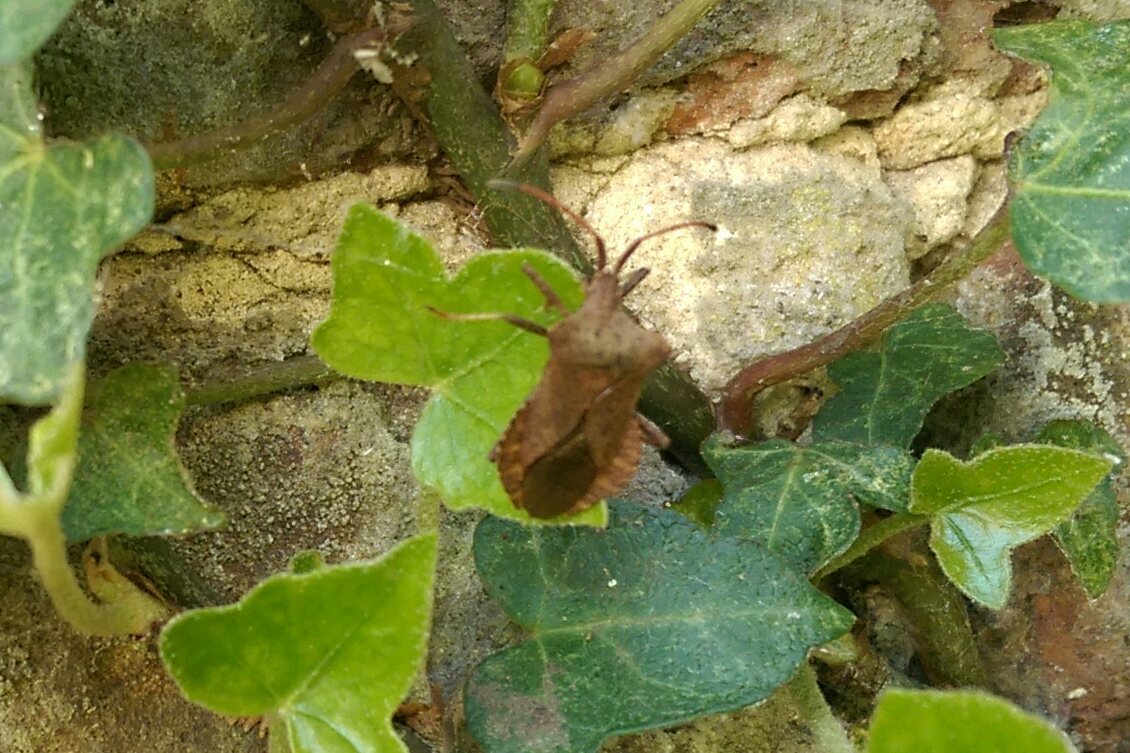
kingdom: Animalia
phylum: Arthropoda
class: Insecta
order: Hemiptera
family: Coreidae
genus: Coreus
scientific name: Coreus marginatus
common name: Dock bug
